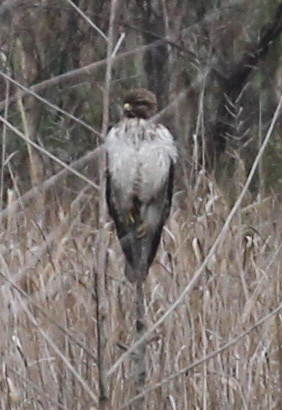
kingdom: Animalia
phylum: Chordata
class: Aves
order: Accipitriformes
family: Accipitridae
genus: Buteo
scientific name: Buteo jamaicensis
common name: Red-tailed hawk
